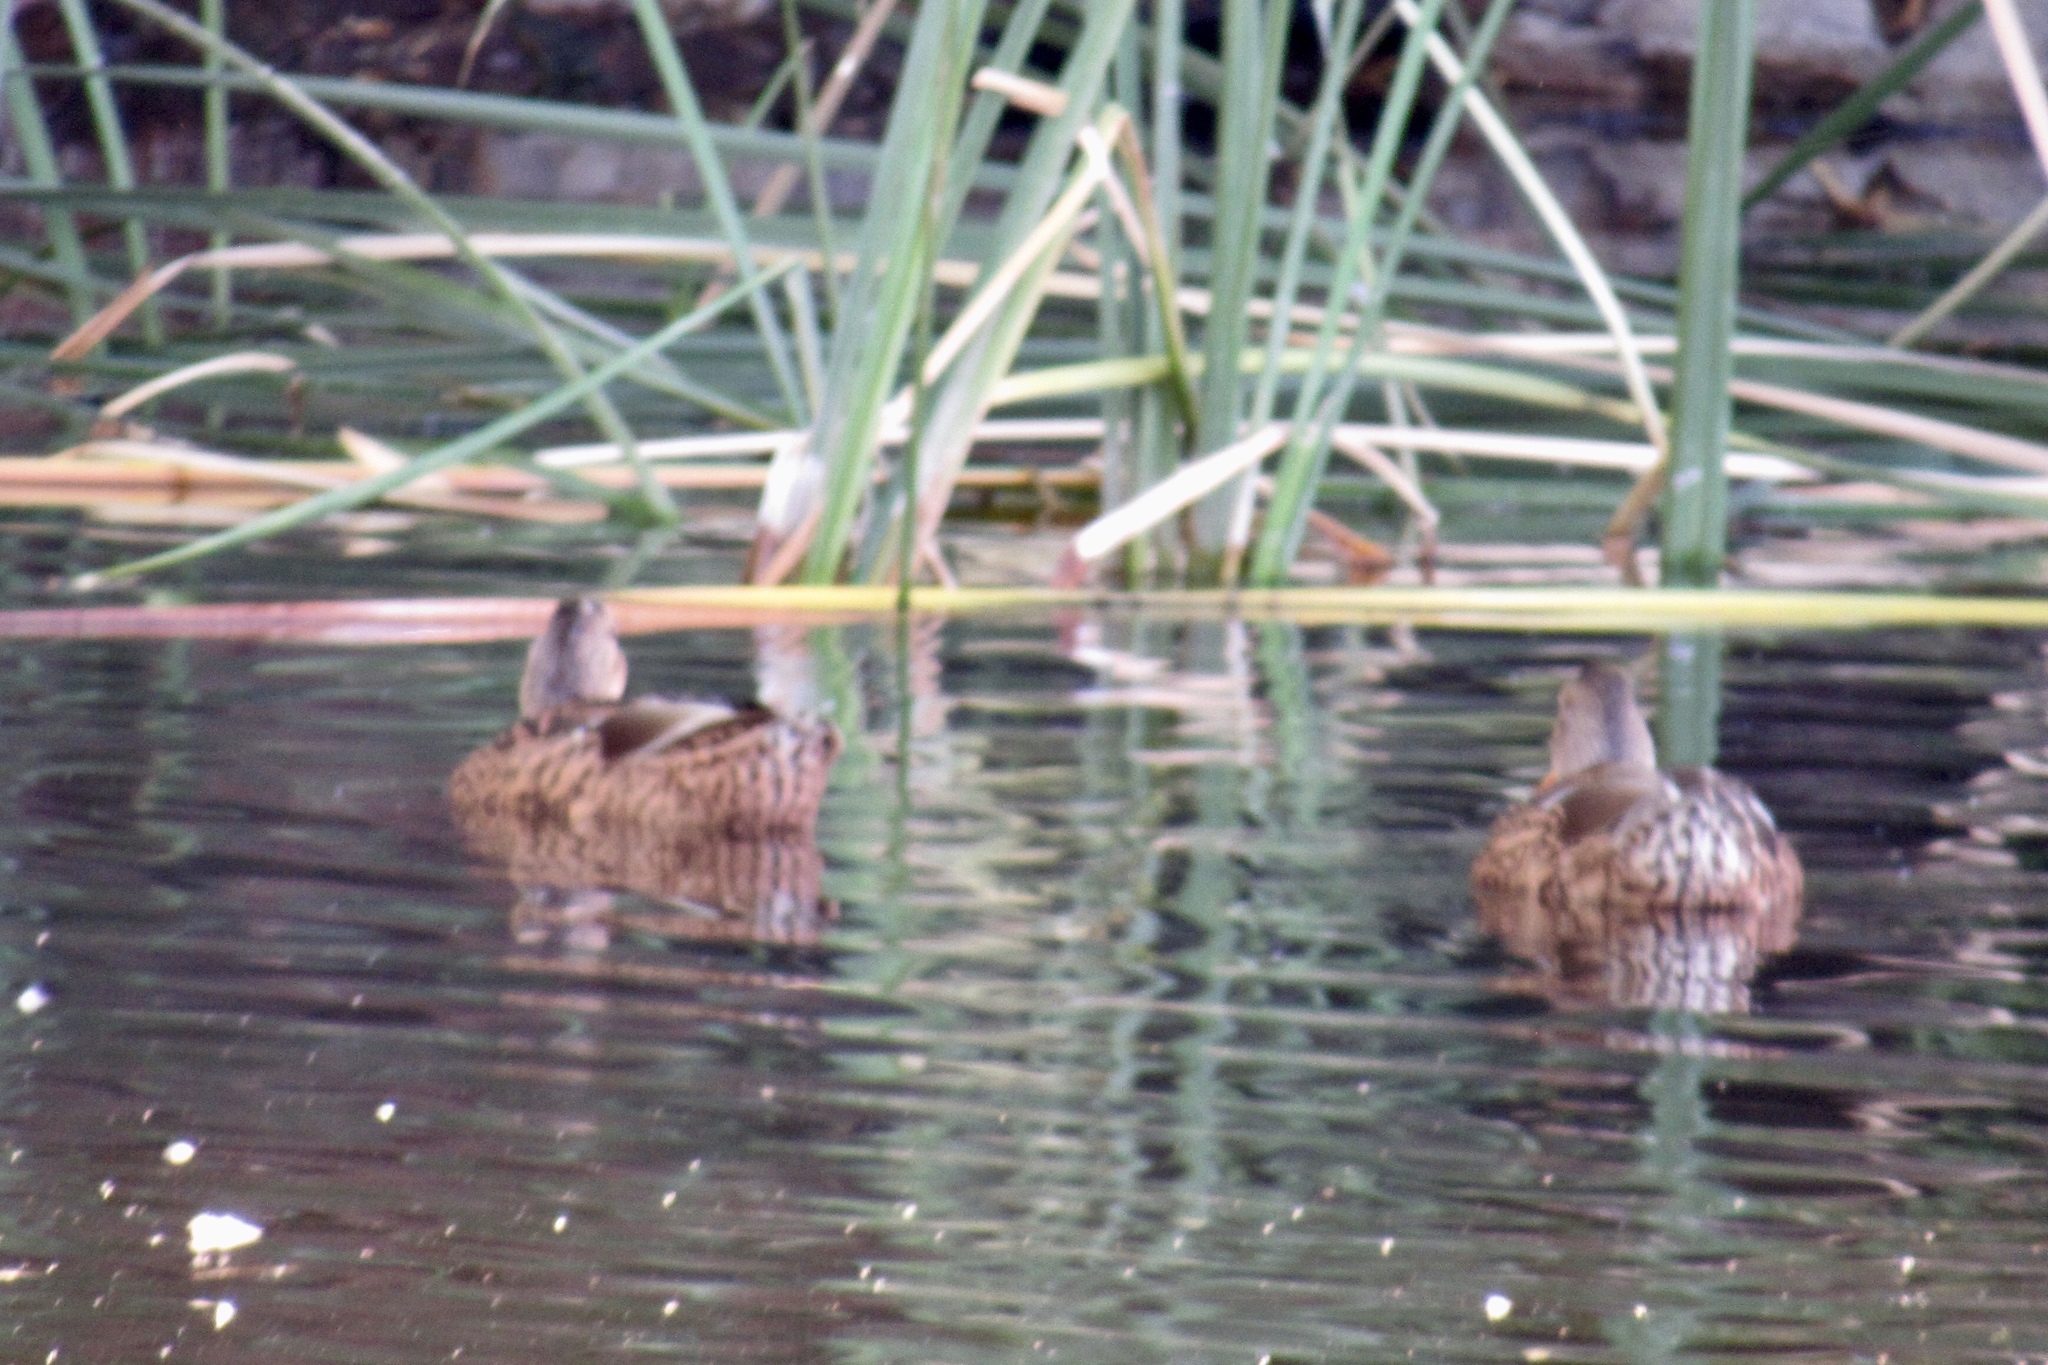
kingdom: Animalia
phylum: Chordata
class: Aves
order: Anseriformes
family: Anatidae
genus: Anas
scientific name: Anas platyrhynchos
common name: Mallard
